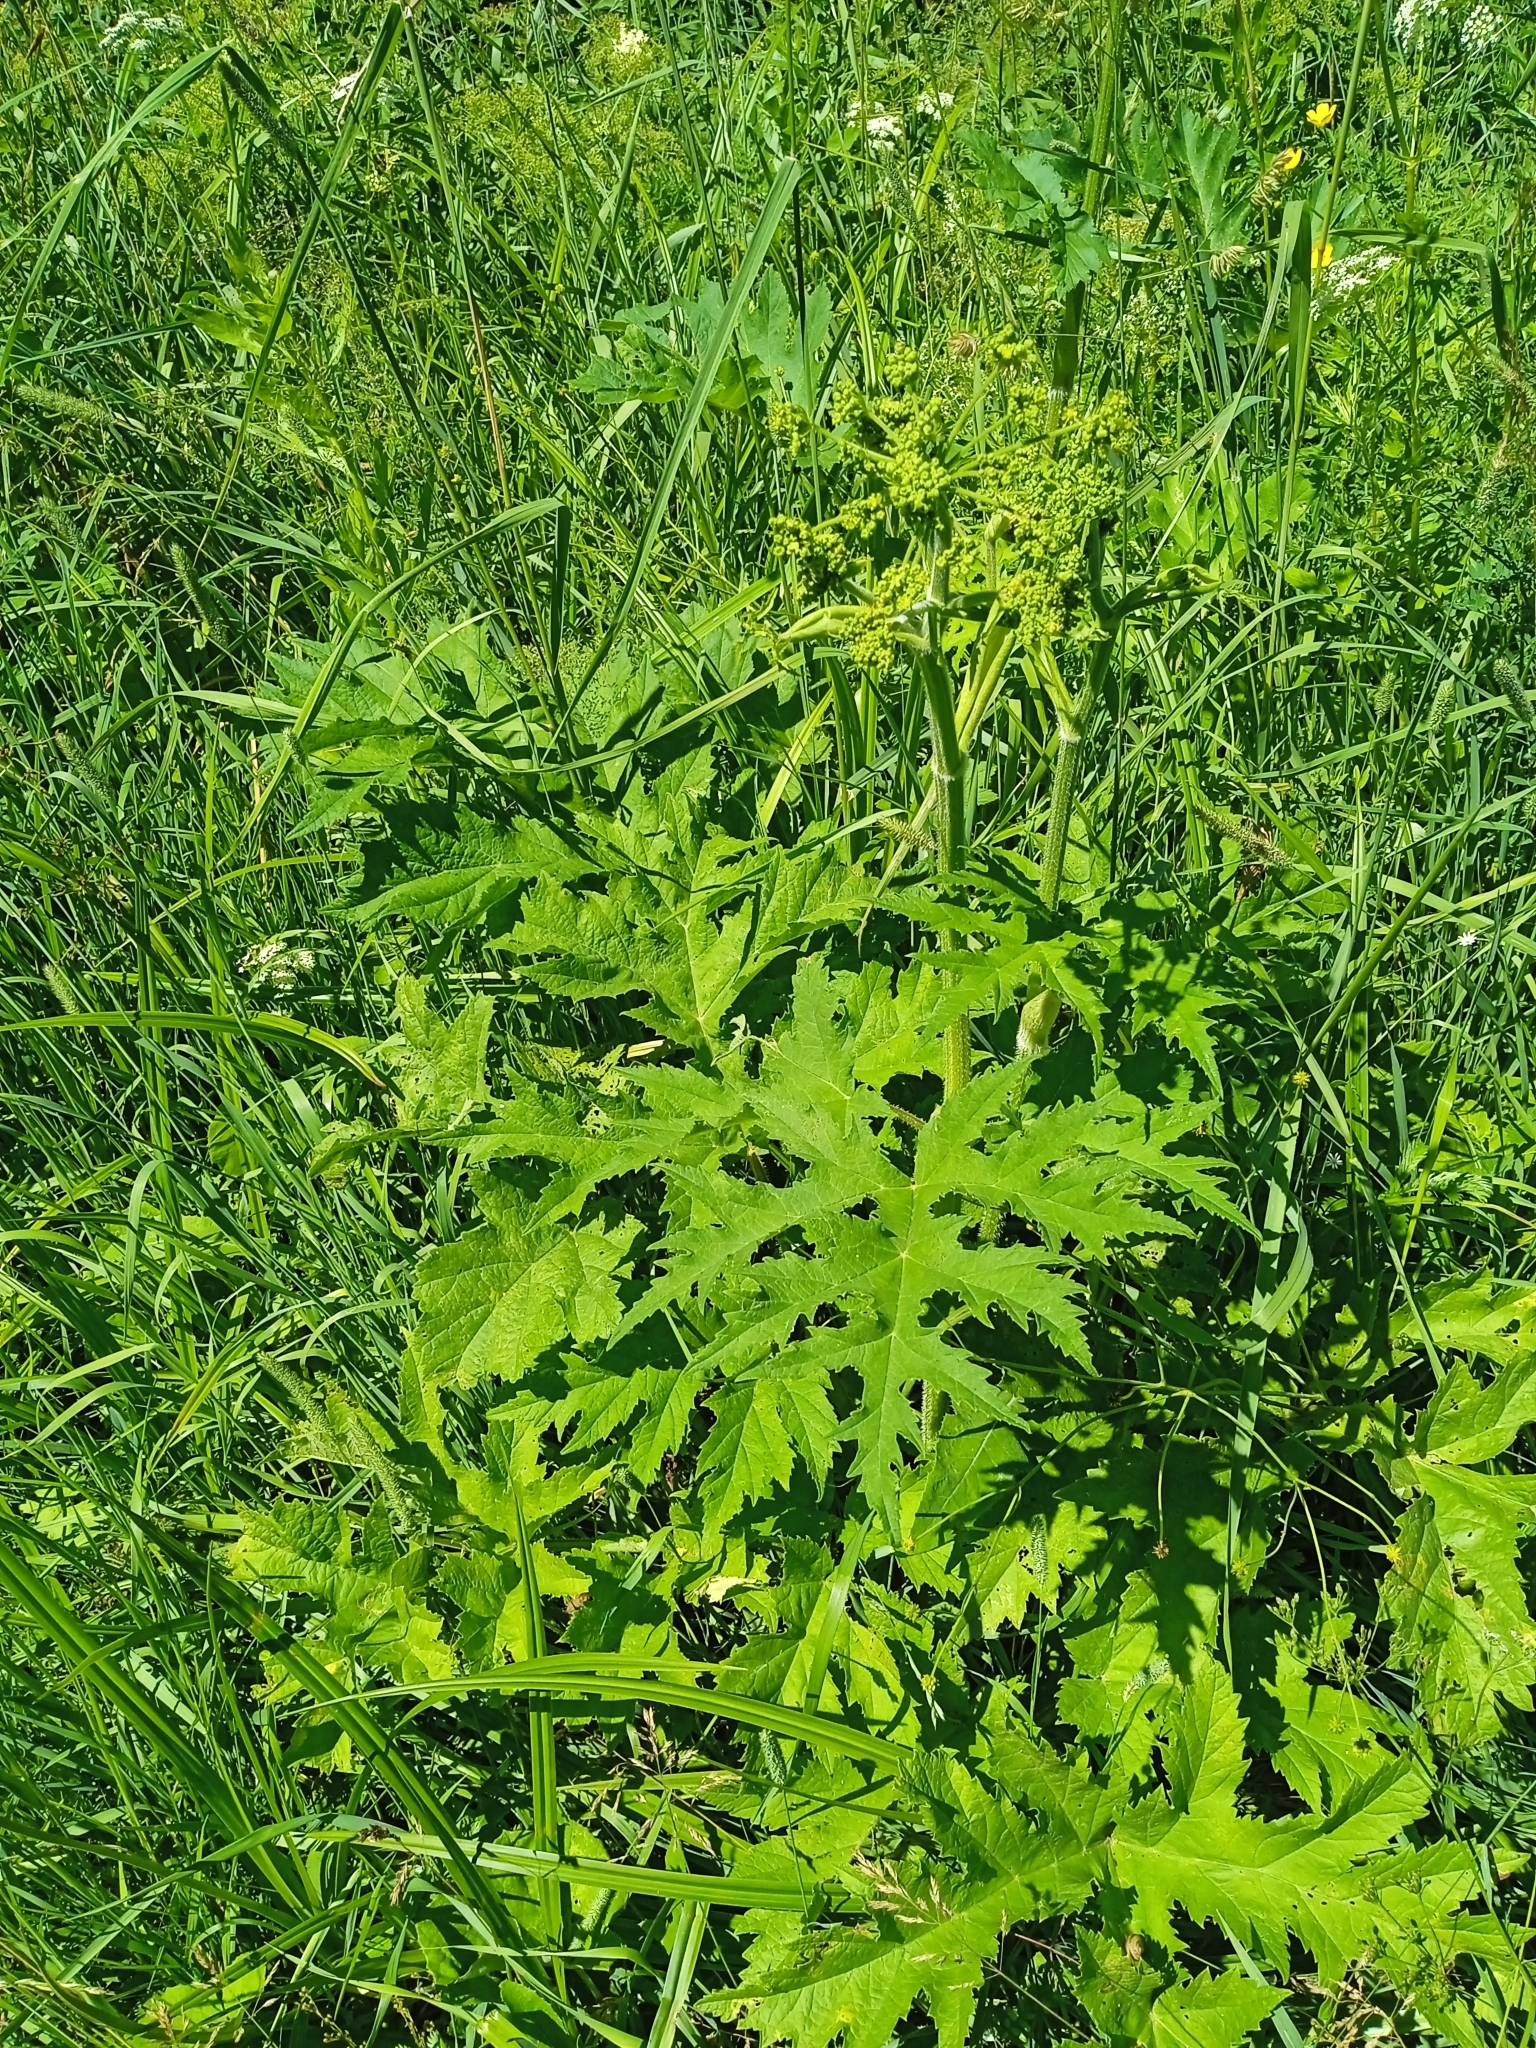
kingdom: Plantae
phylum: Tracheophyta
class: Magnoliopsida
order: Apiales
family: Apiaceae
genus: Heracleum
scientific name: Heracleum sphondylium
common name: Hogweed
